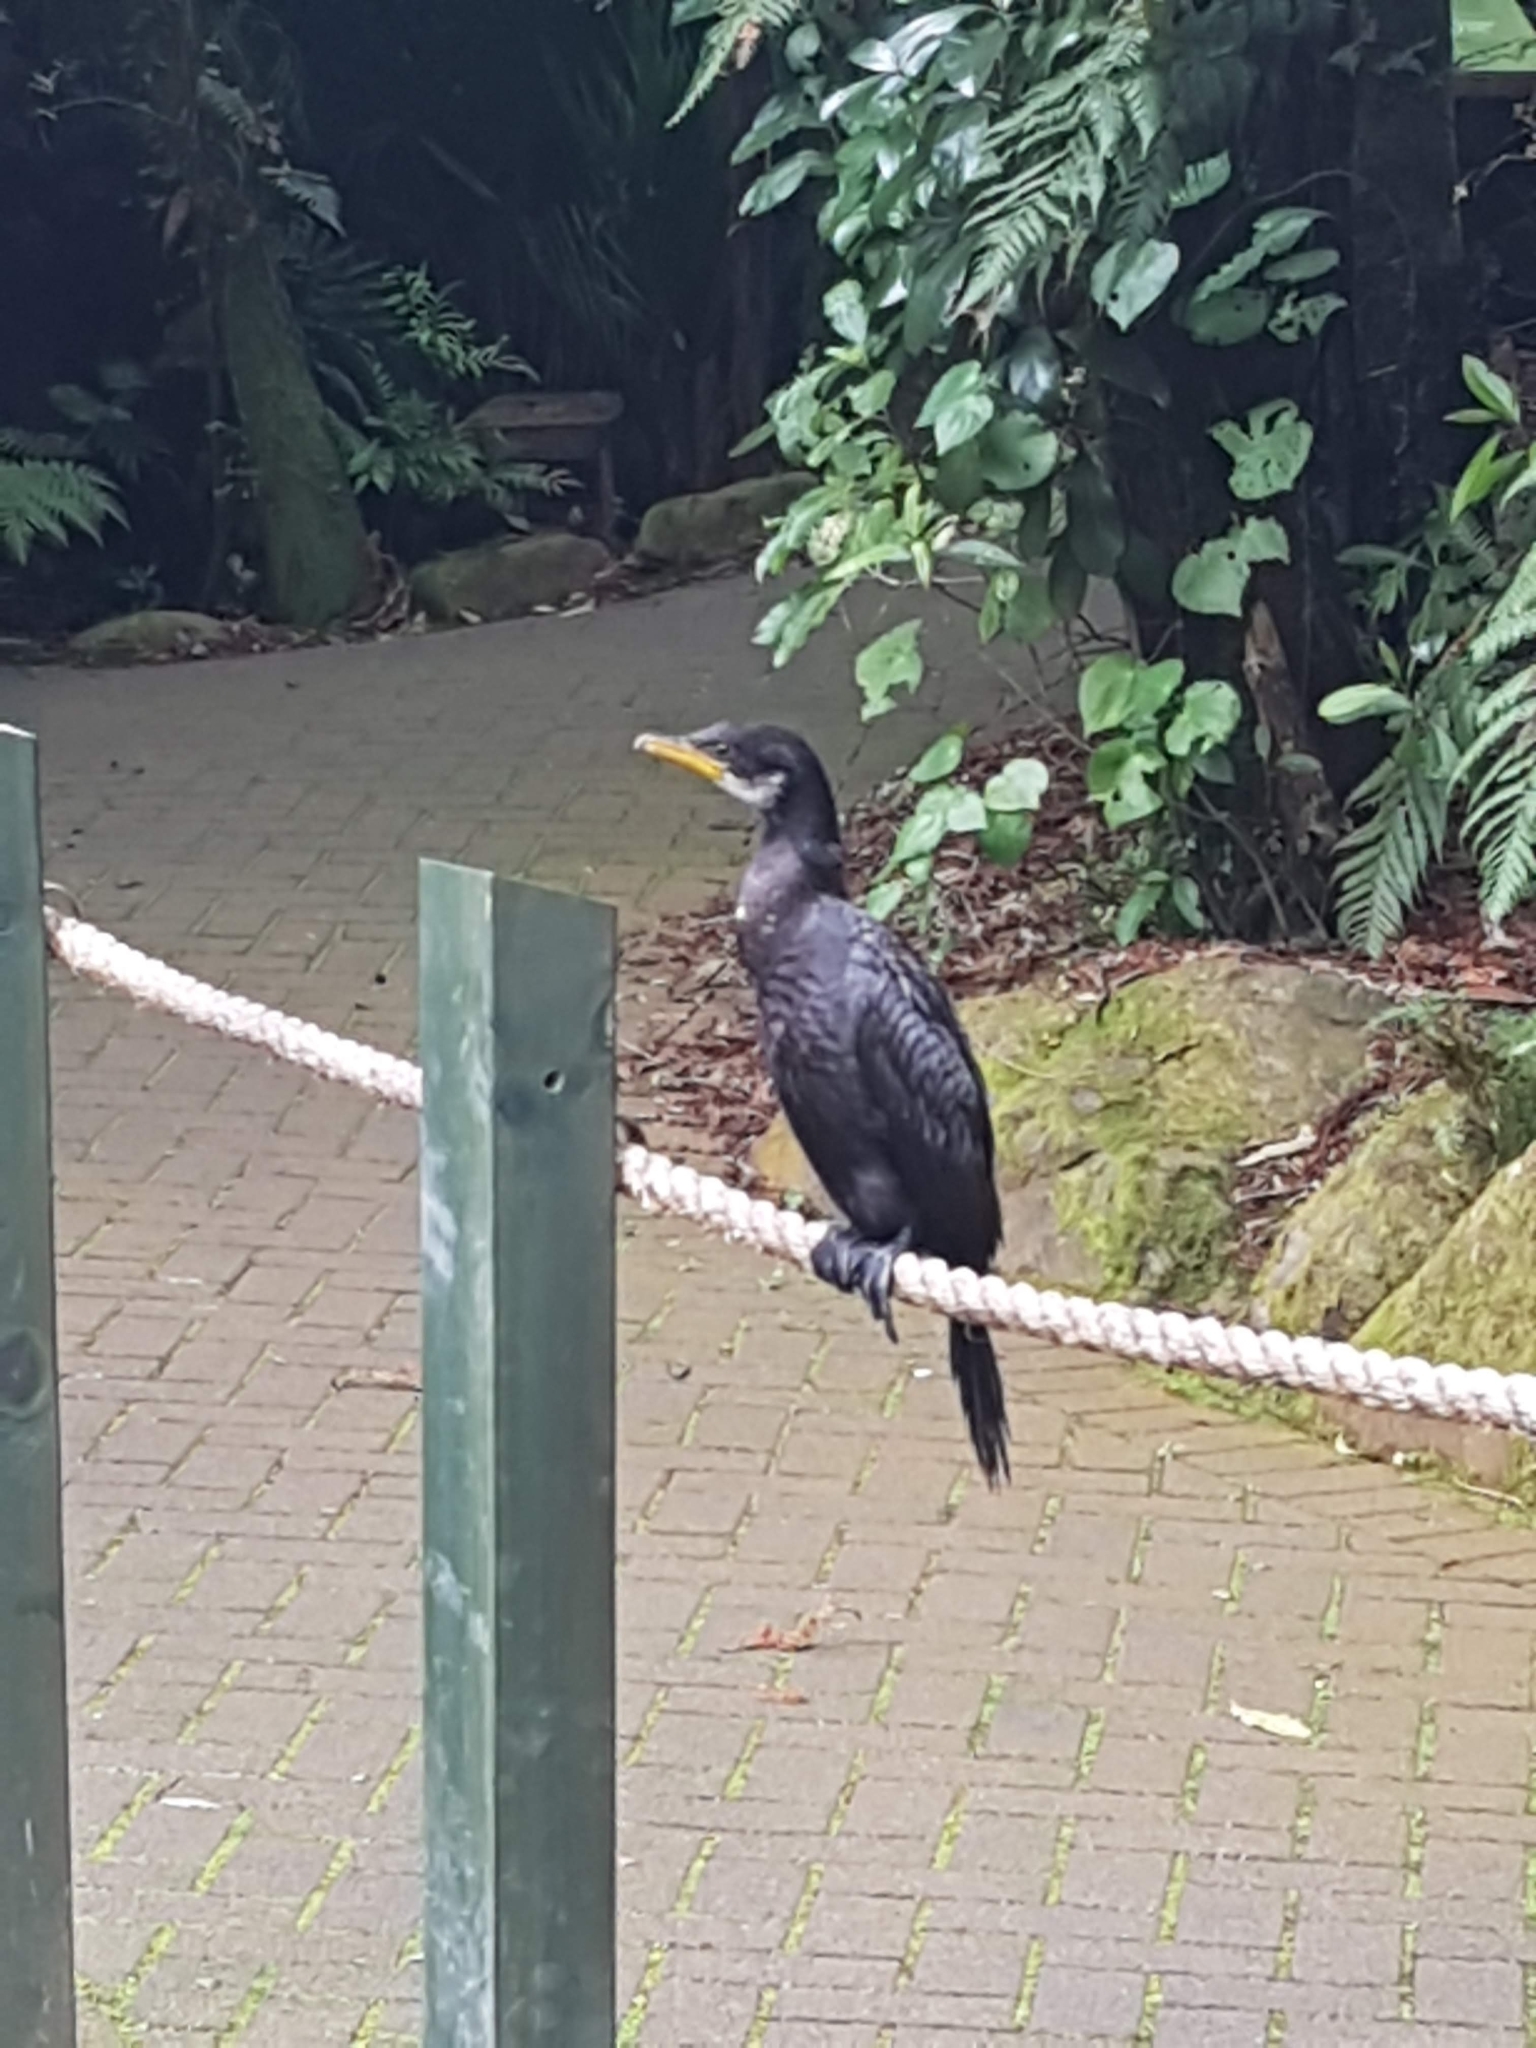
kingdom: Animalia
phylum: Chordata
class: Aves
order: Suliformes
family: Phalacrocoracidae
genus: Microcarbo
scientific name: Microcarbo melanoleucos
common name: Little pied cormorant
